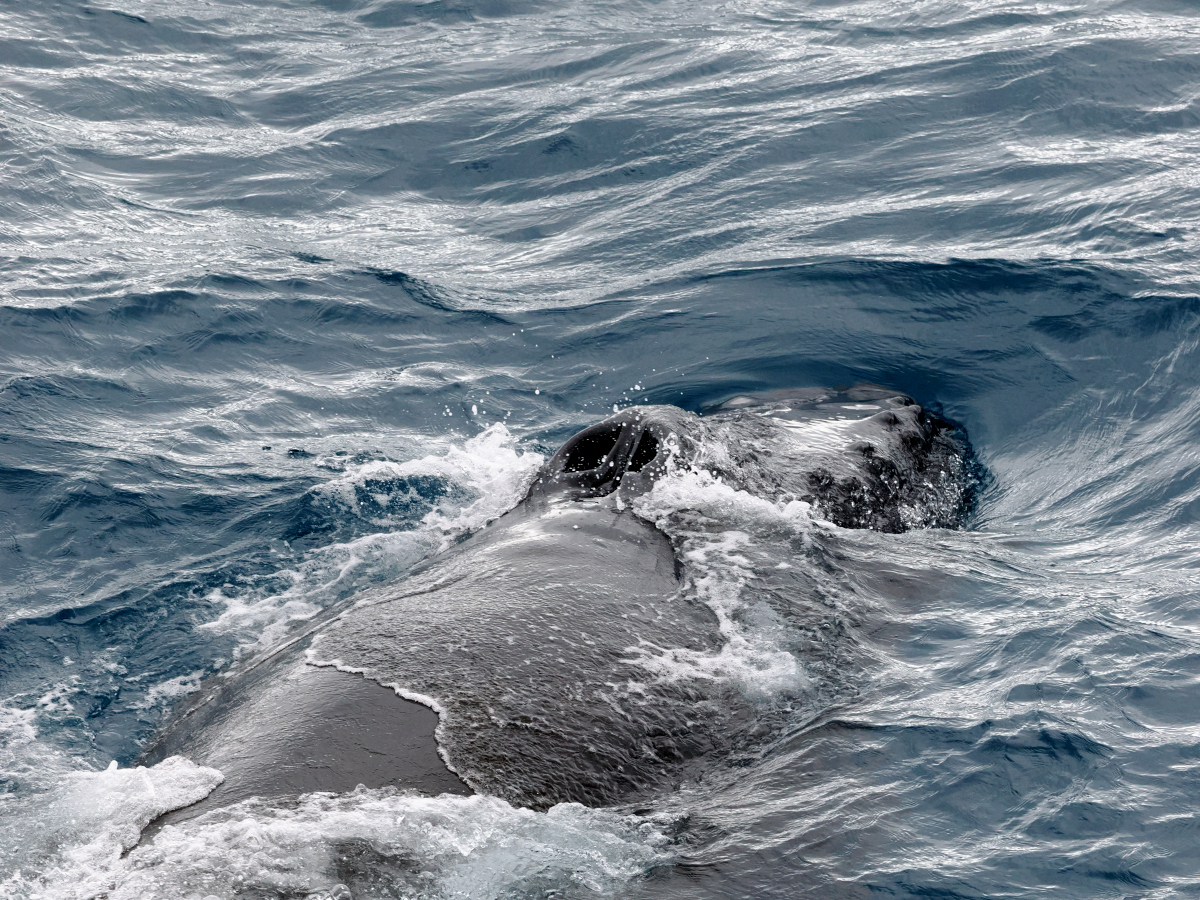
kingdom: Animalia
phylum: Chordata
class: Mammalia
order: Cetacea
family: Balaenopteridae
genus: Megaptera
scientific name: Megaptera novaeangliae
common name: Humpback whale
